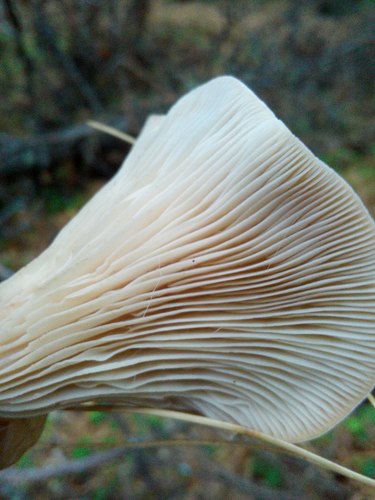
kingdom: Fungi
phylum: Basidiomycota
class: Agaricomycetes
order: Agaricales
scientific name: Agaricales
